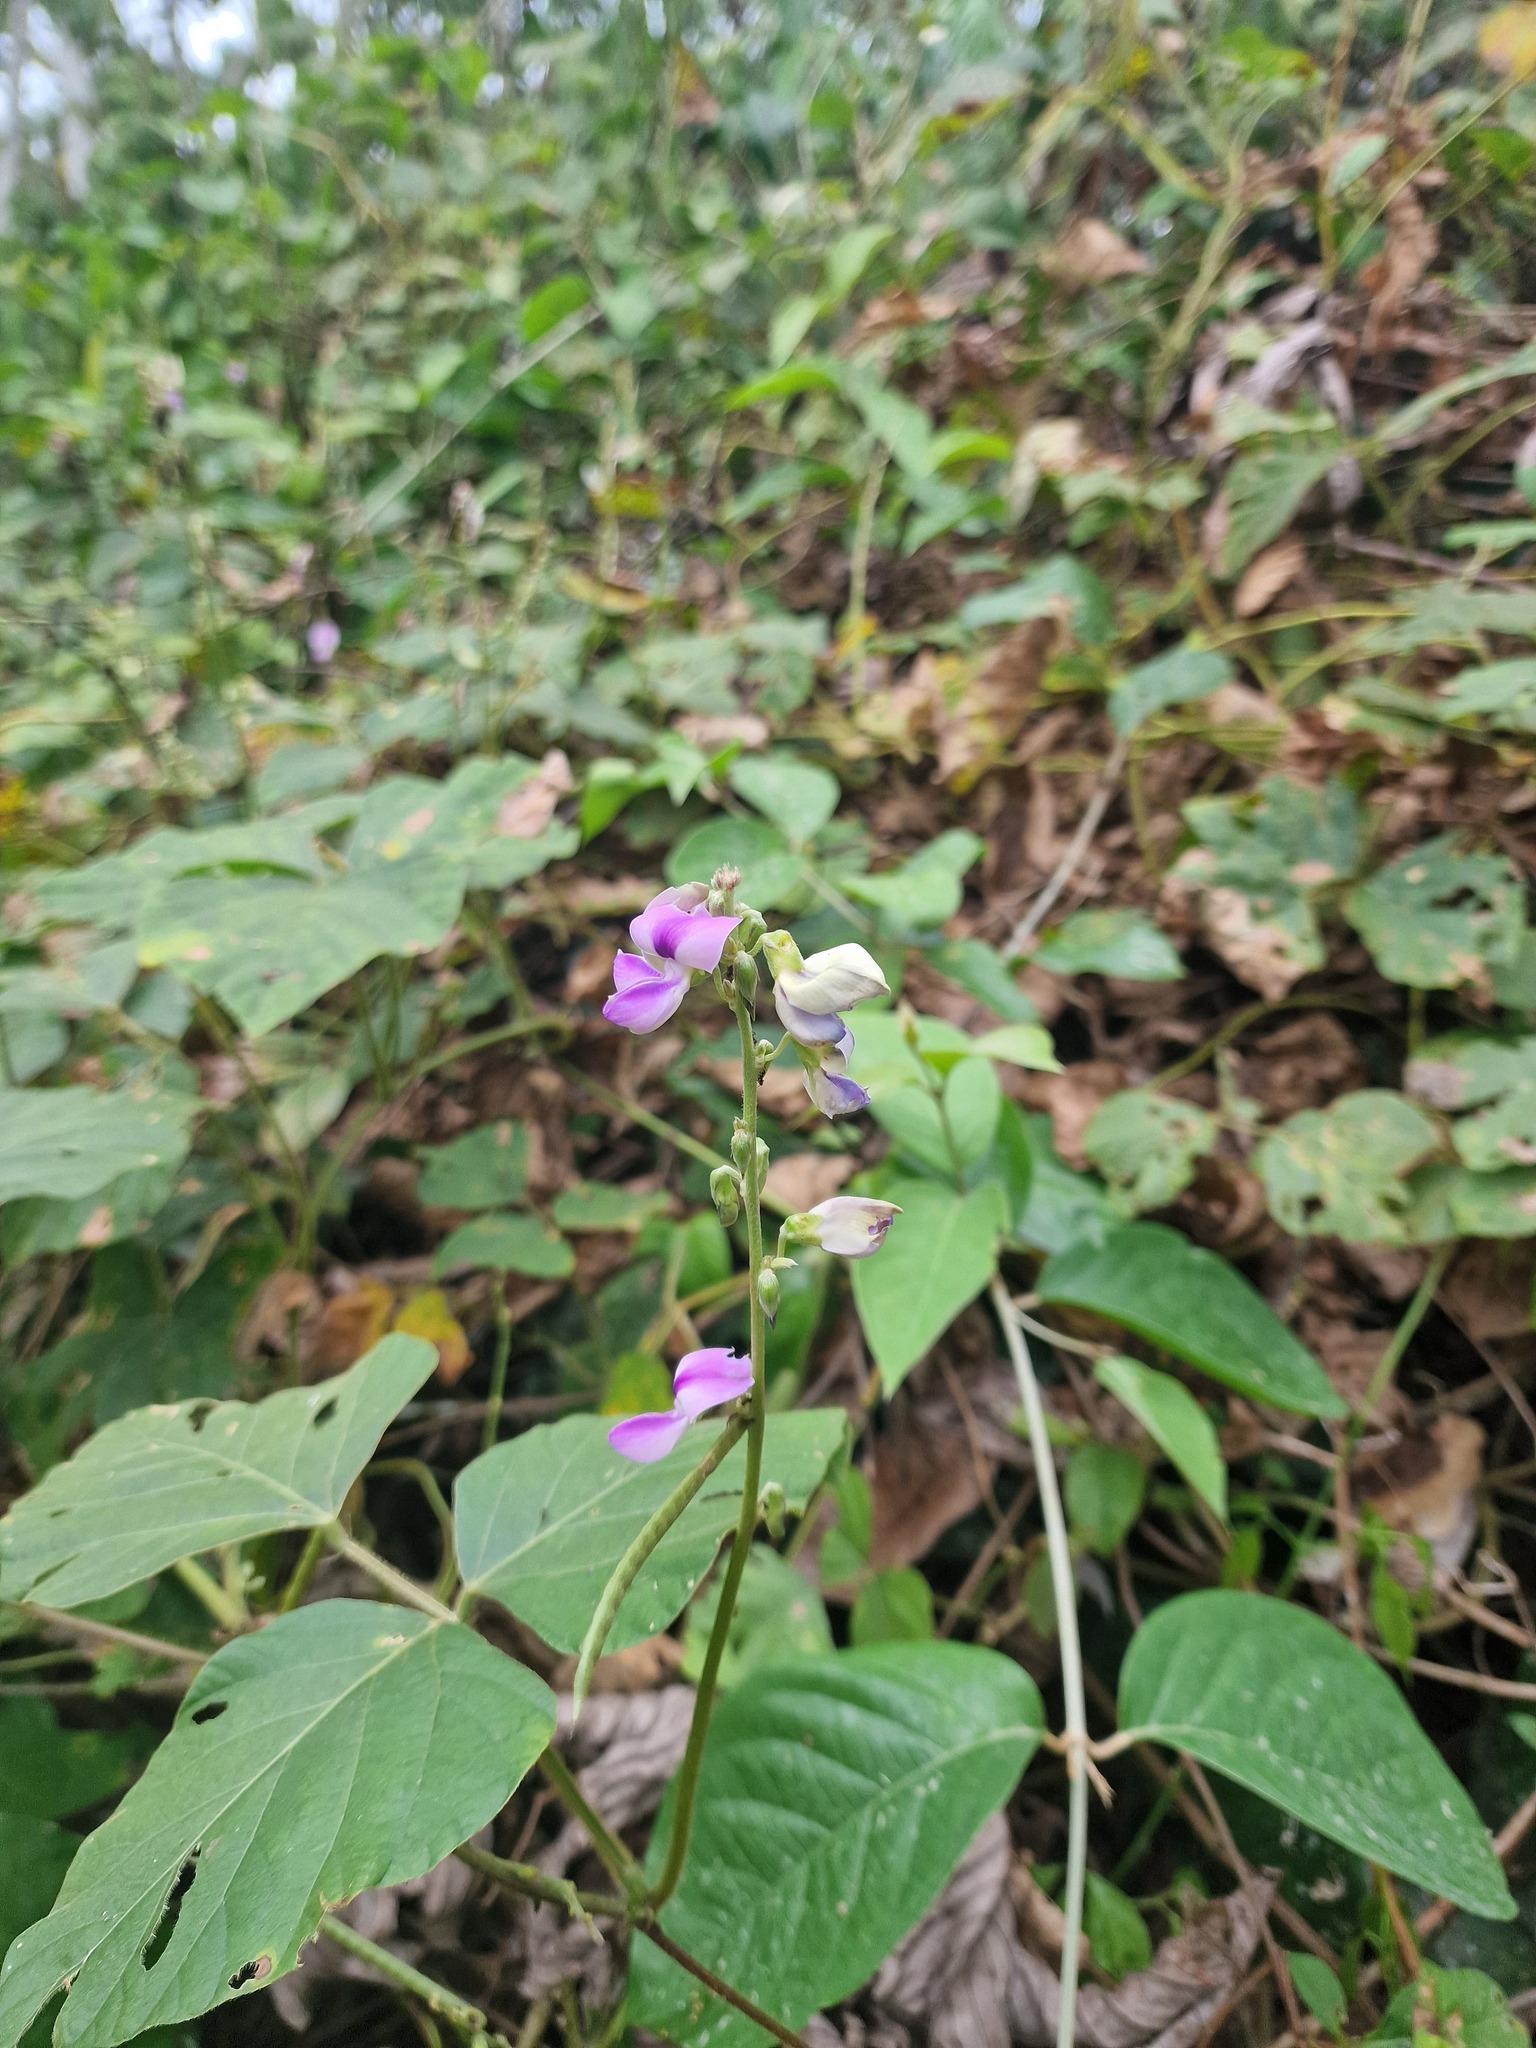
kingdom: Plantae
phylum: Tracheophyta
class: Magnoliopsida
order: Fabales
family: Fabaceae
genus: Neustanthus
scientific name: Neustanthus phaseoloides
